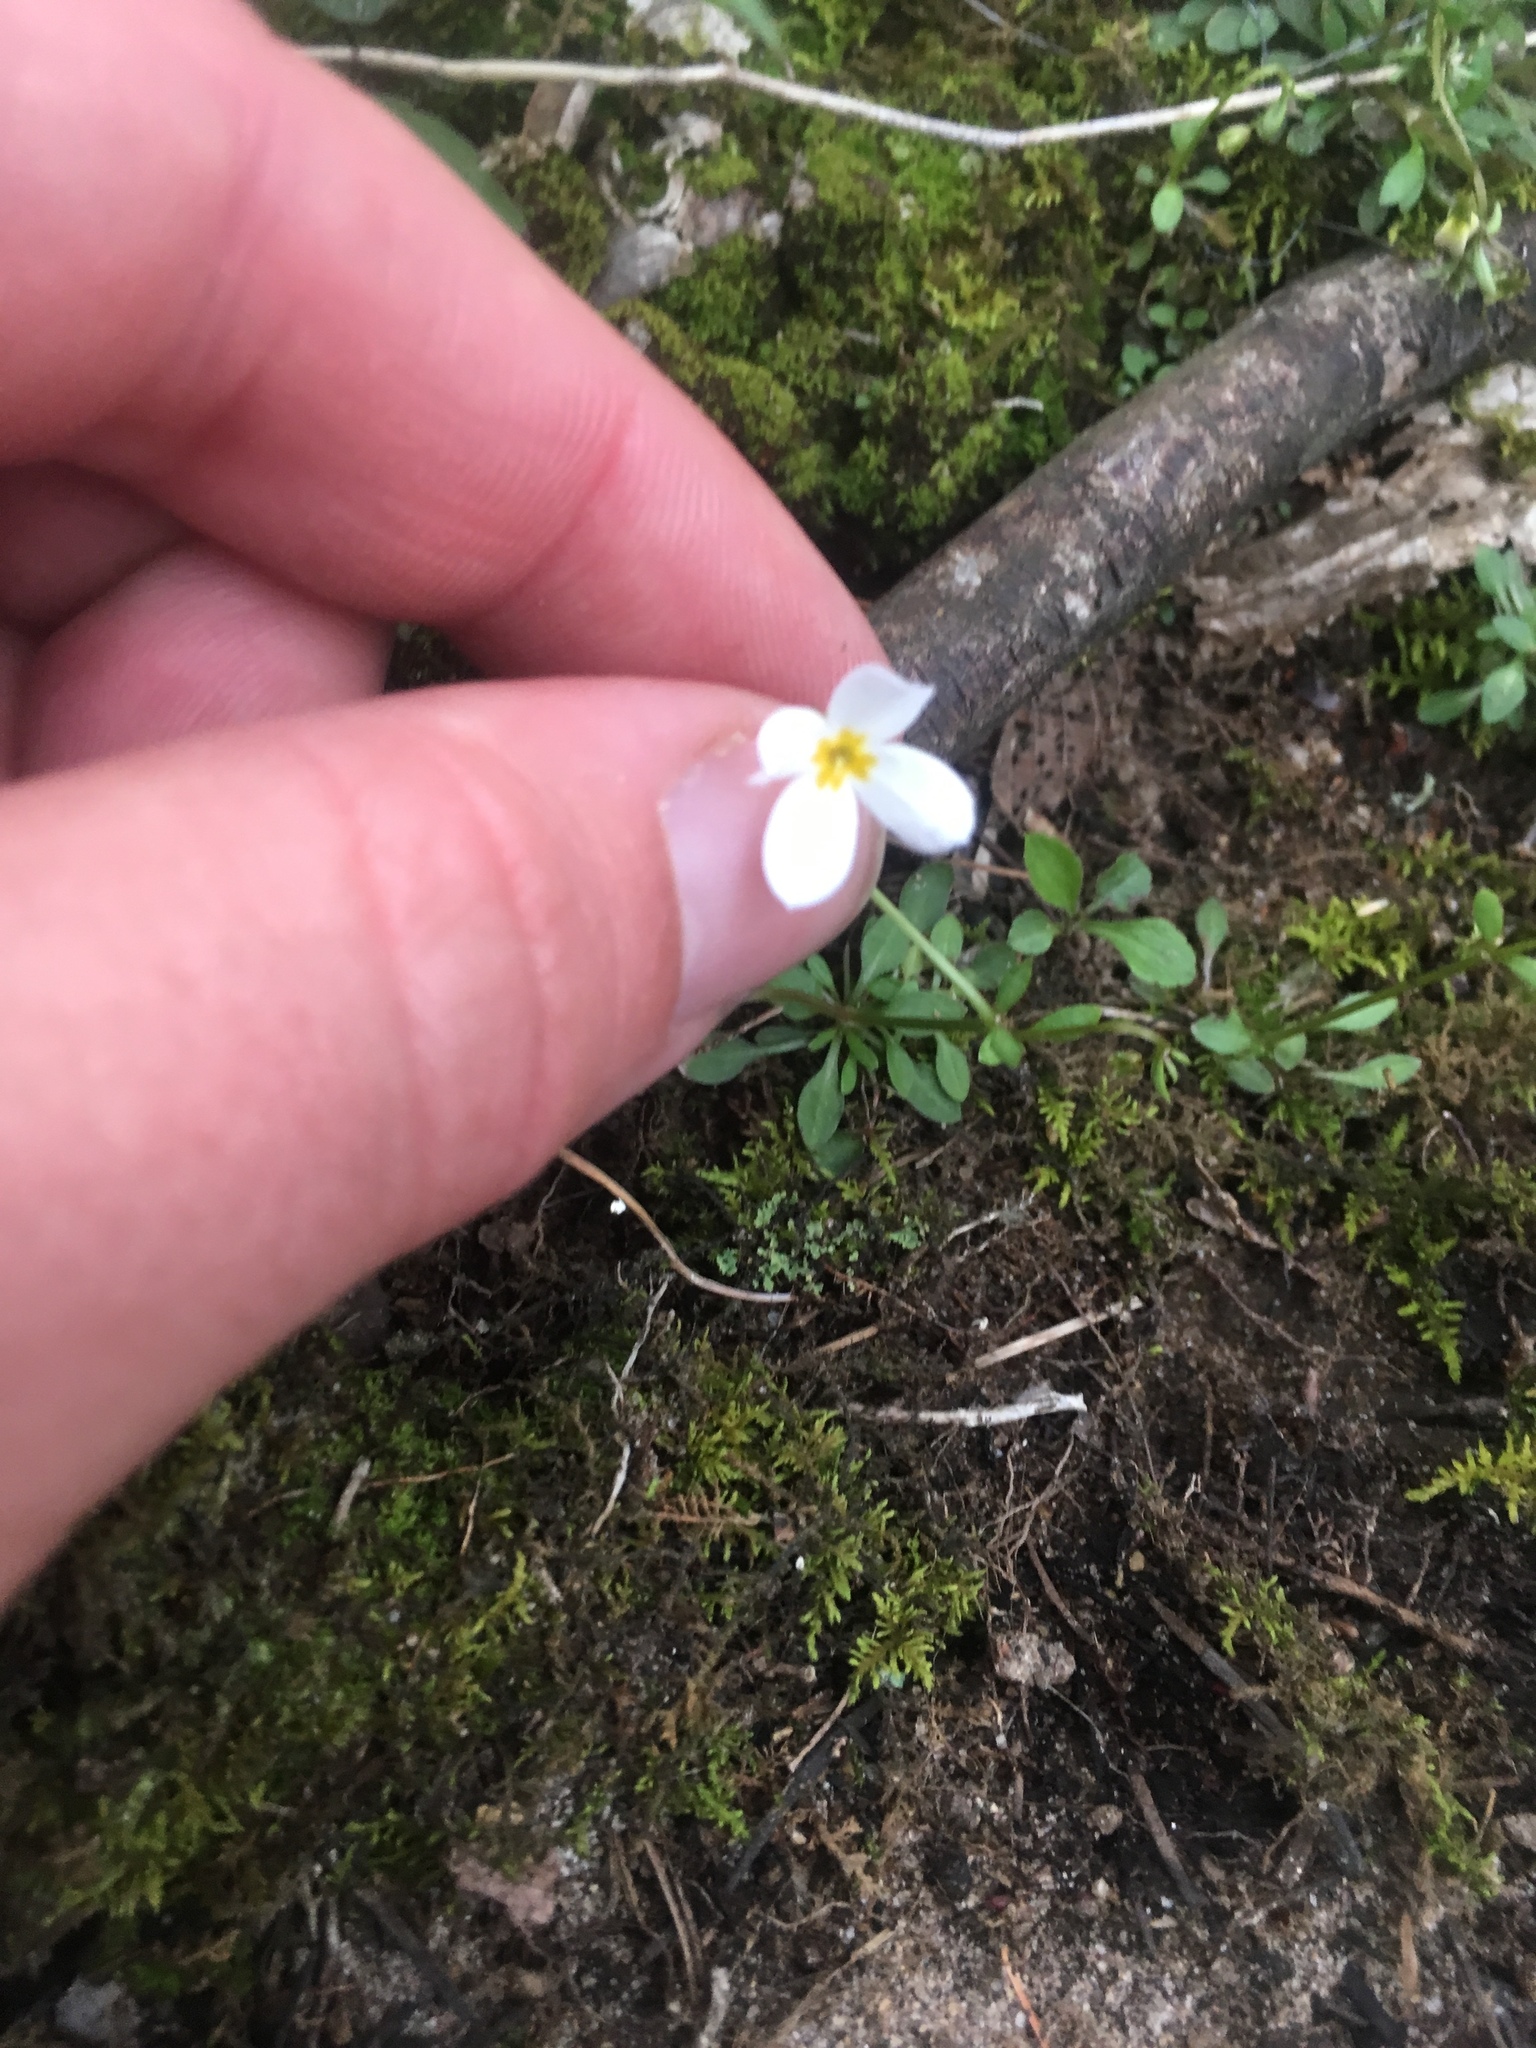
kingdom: Plantae
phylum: Tracheophyta
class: Magnoliopsida
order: Gentianales
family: Rubiaceae
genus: Houstonia
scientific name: Houstonia caerulea
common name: Bluets
